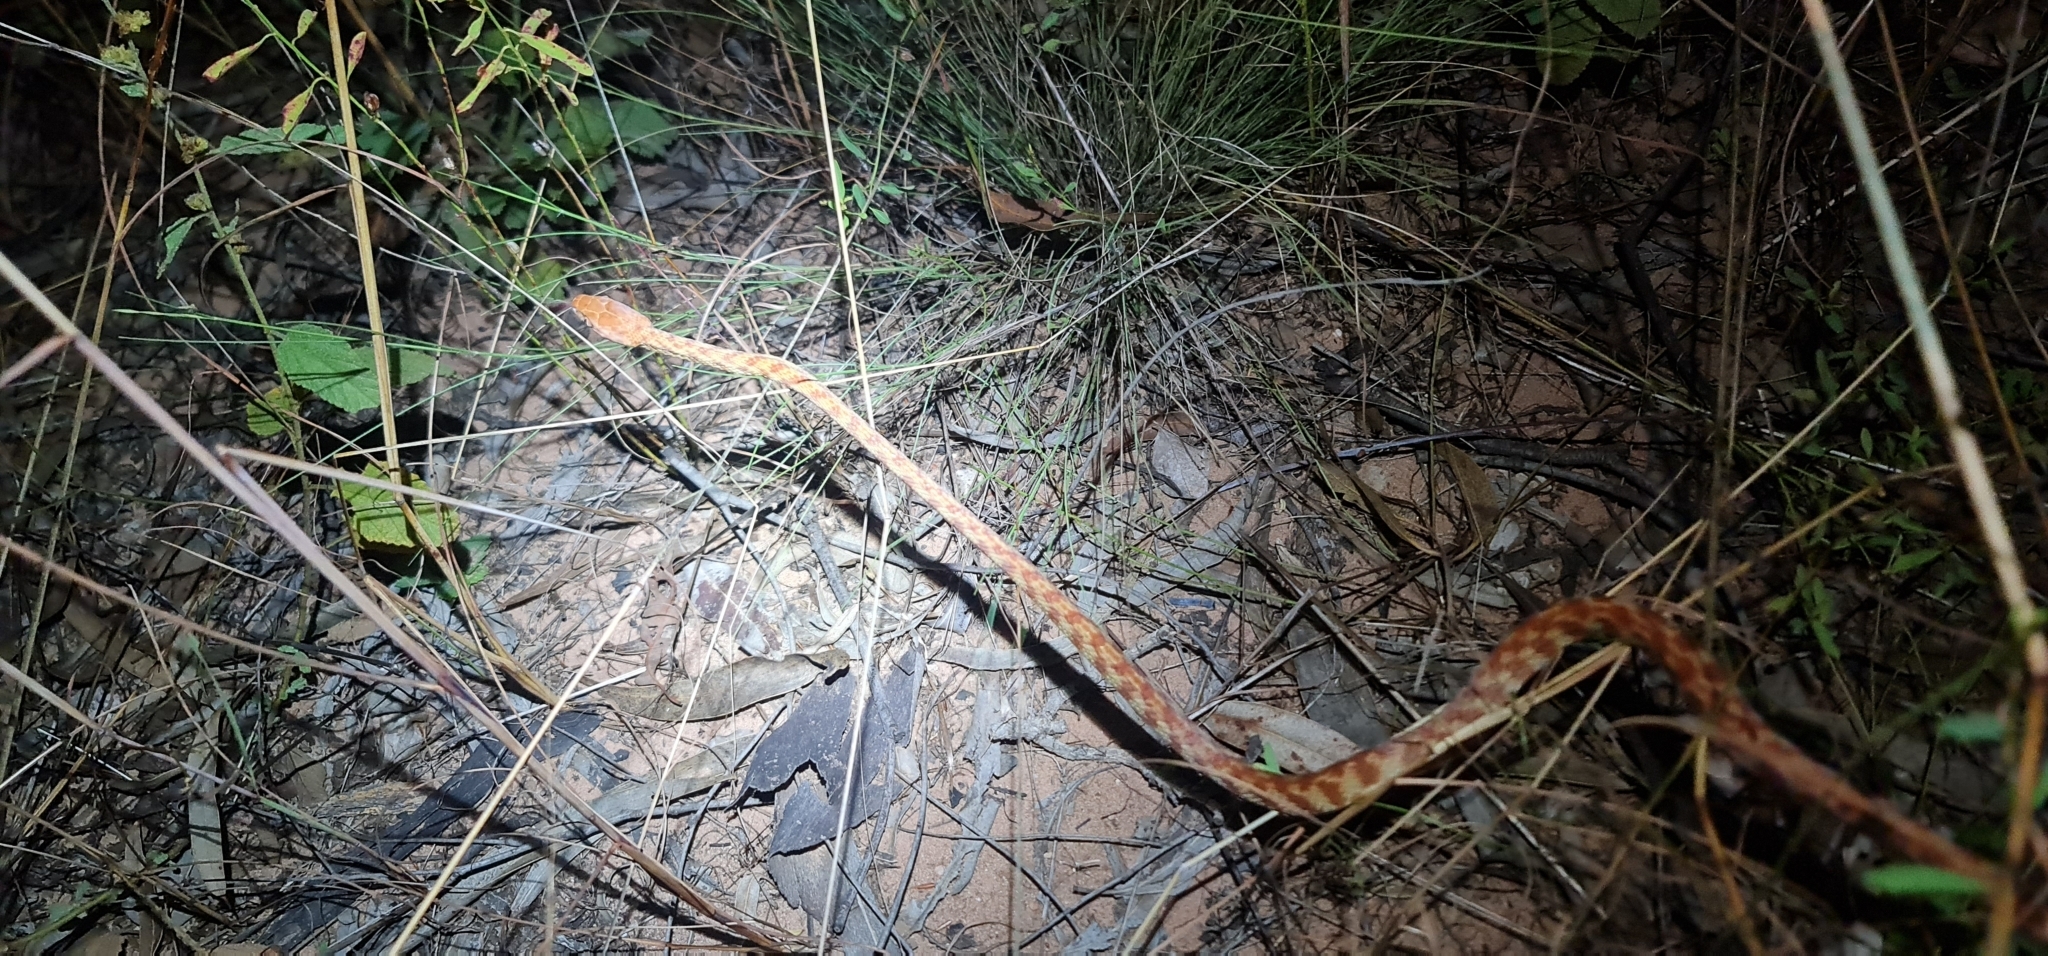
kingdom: Animalia
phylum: Chordata
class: Squamata
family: Colubridae
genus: Boiga
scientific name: Boiga irregularis
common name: Brown tree snake
